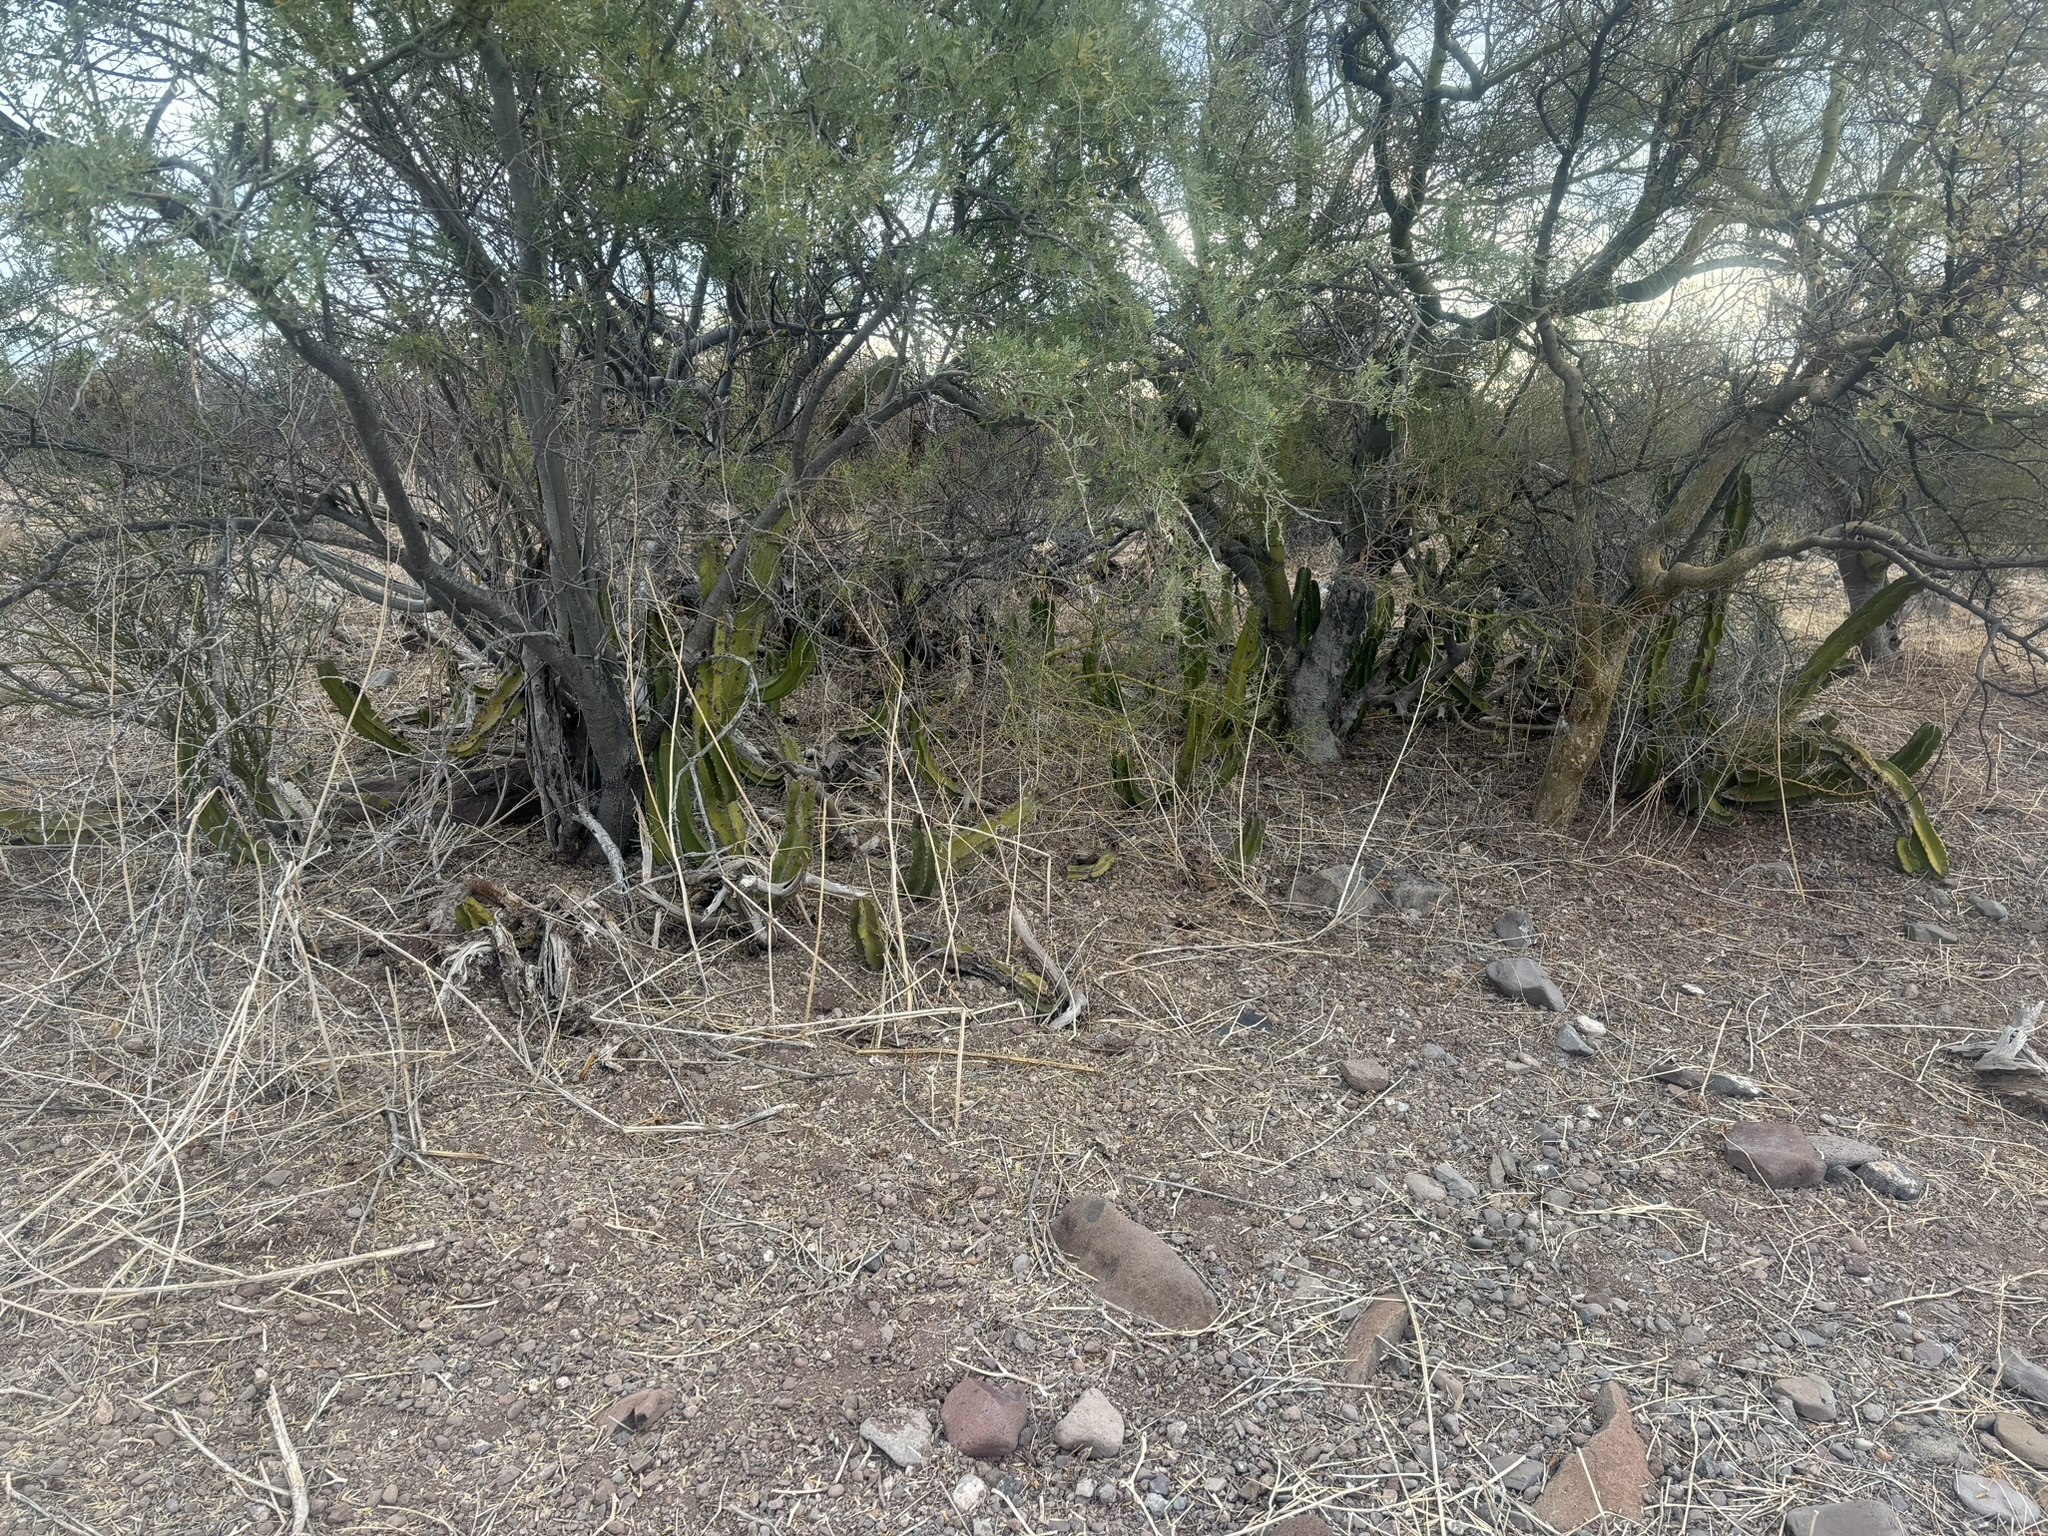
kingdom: Plantae
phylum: Tracheophyta
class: Magnoliopsida
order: Caryophyllales
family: Cactaceae
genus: Pachycereus
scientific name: Pachycereus schottii
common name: Senita cactus
